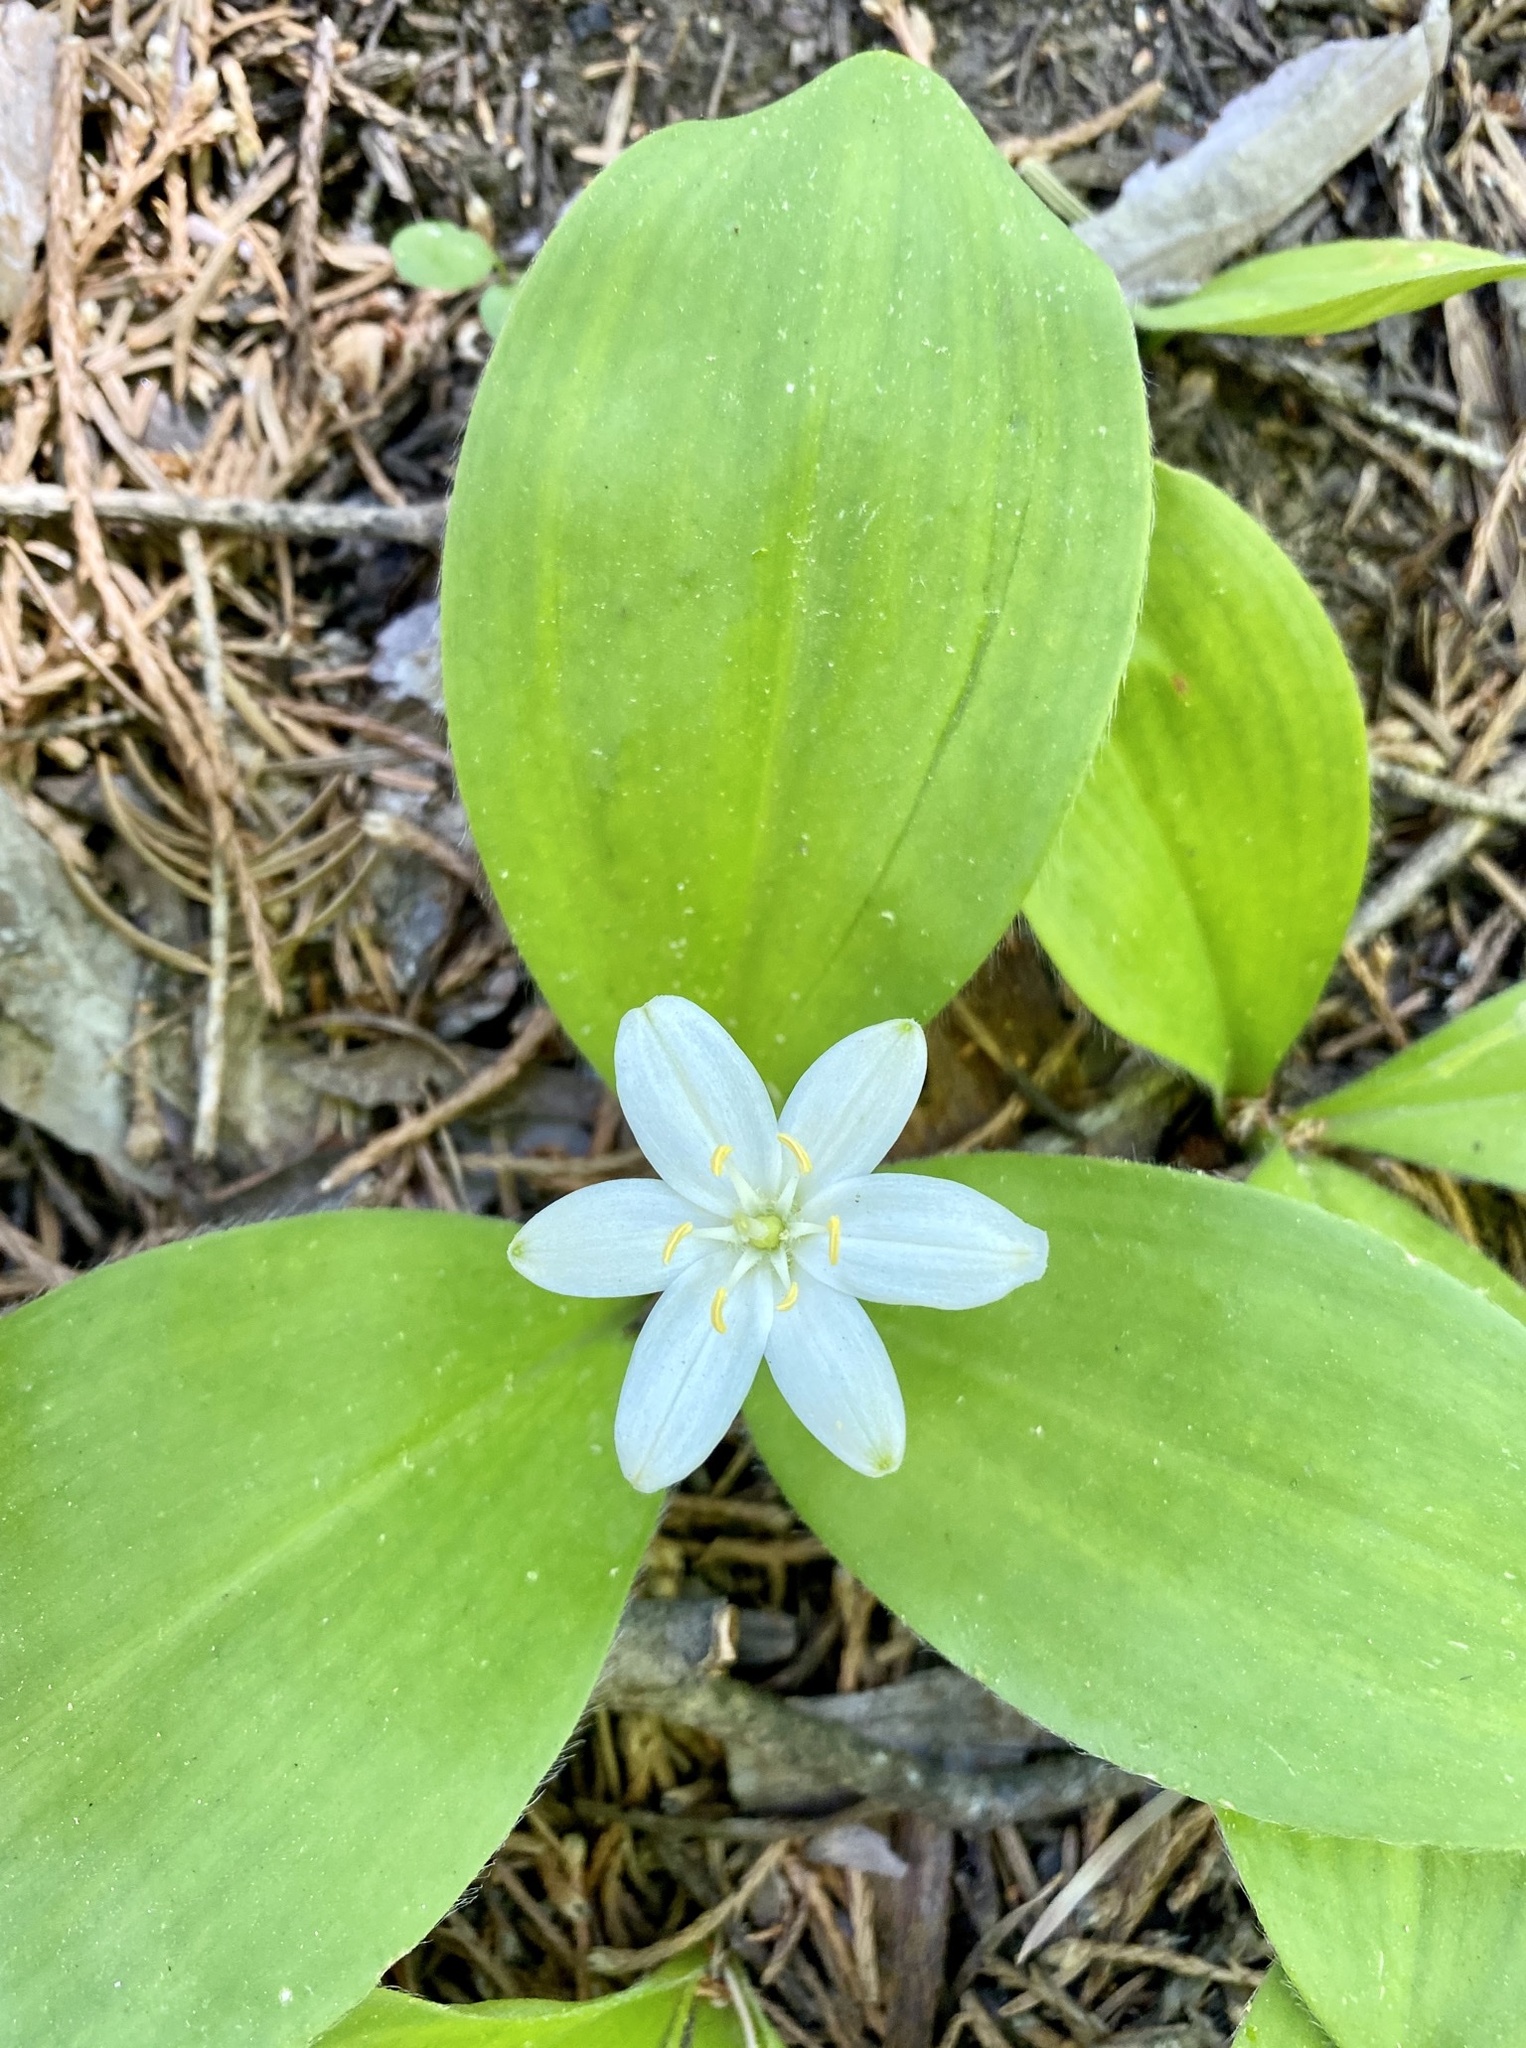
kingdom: Plantae
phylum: Tracheophyta
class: Liliopsida
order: Liliales
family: Liliaceae
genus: Clintonia
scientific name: Clintonia uniflora
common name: Queen's cup
